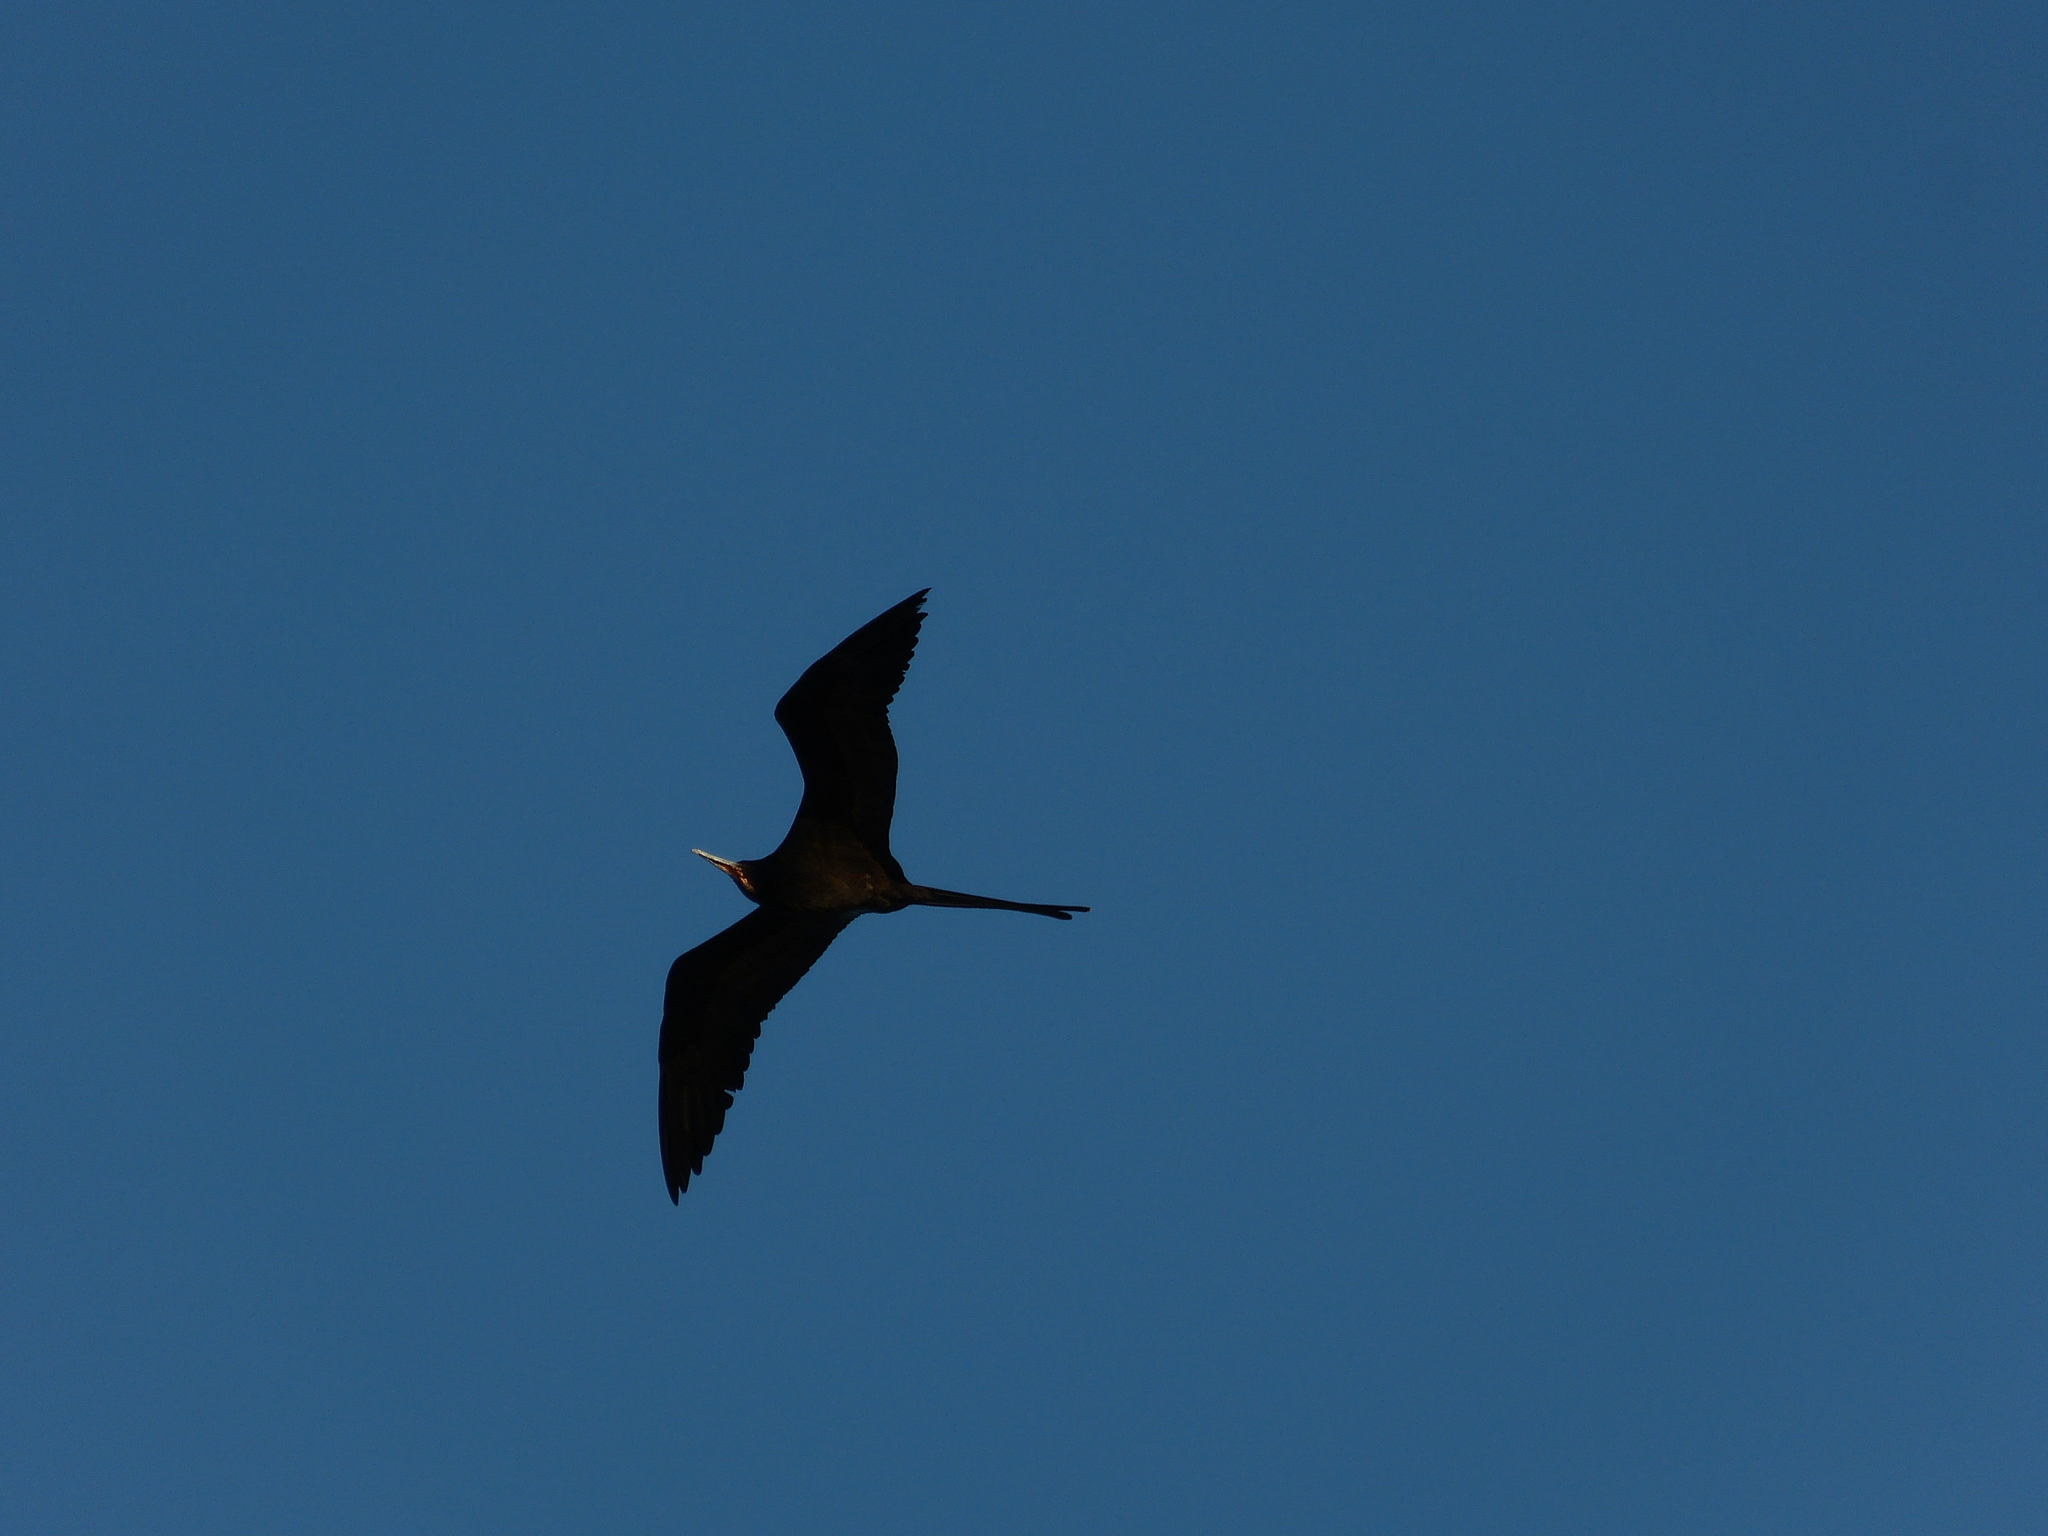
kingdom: Animalia
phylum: Chordata
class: Aves
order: Suliformes
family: Fregatidae
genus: Fregata
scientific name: Fregata magnificens
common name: Magnificent frigatebird
